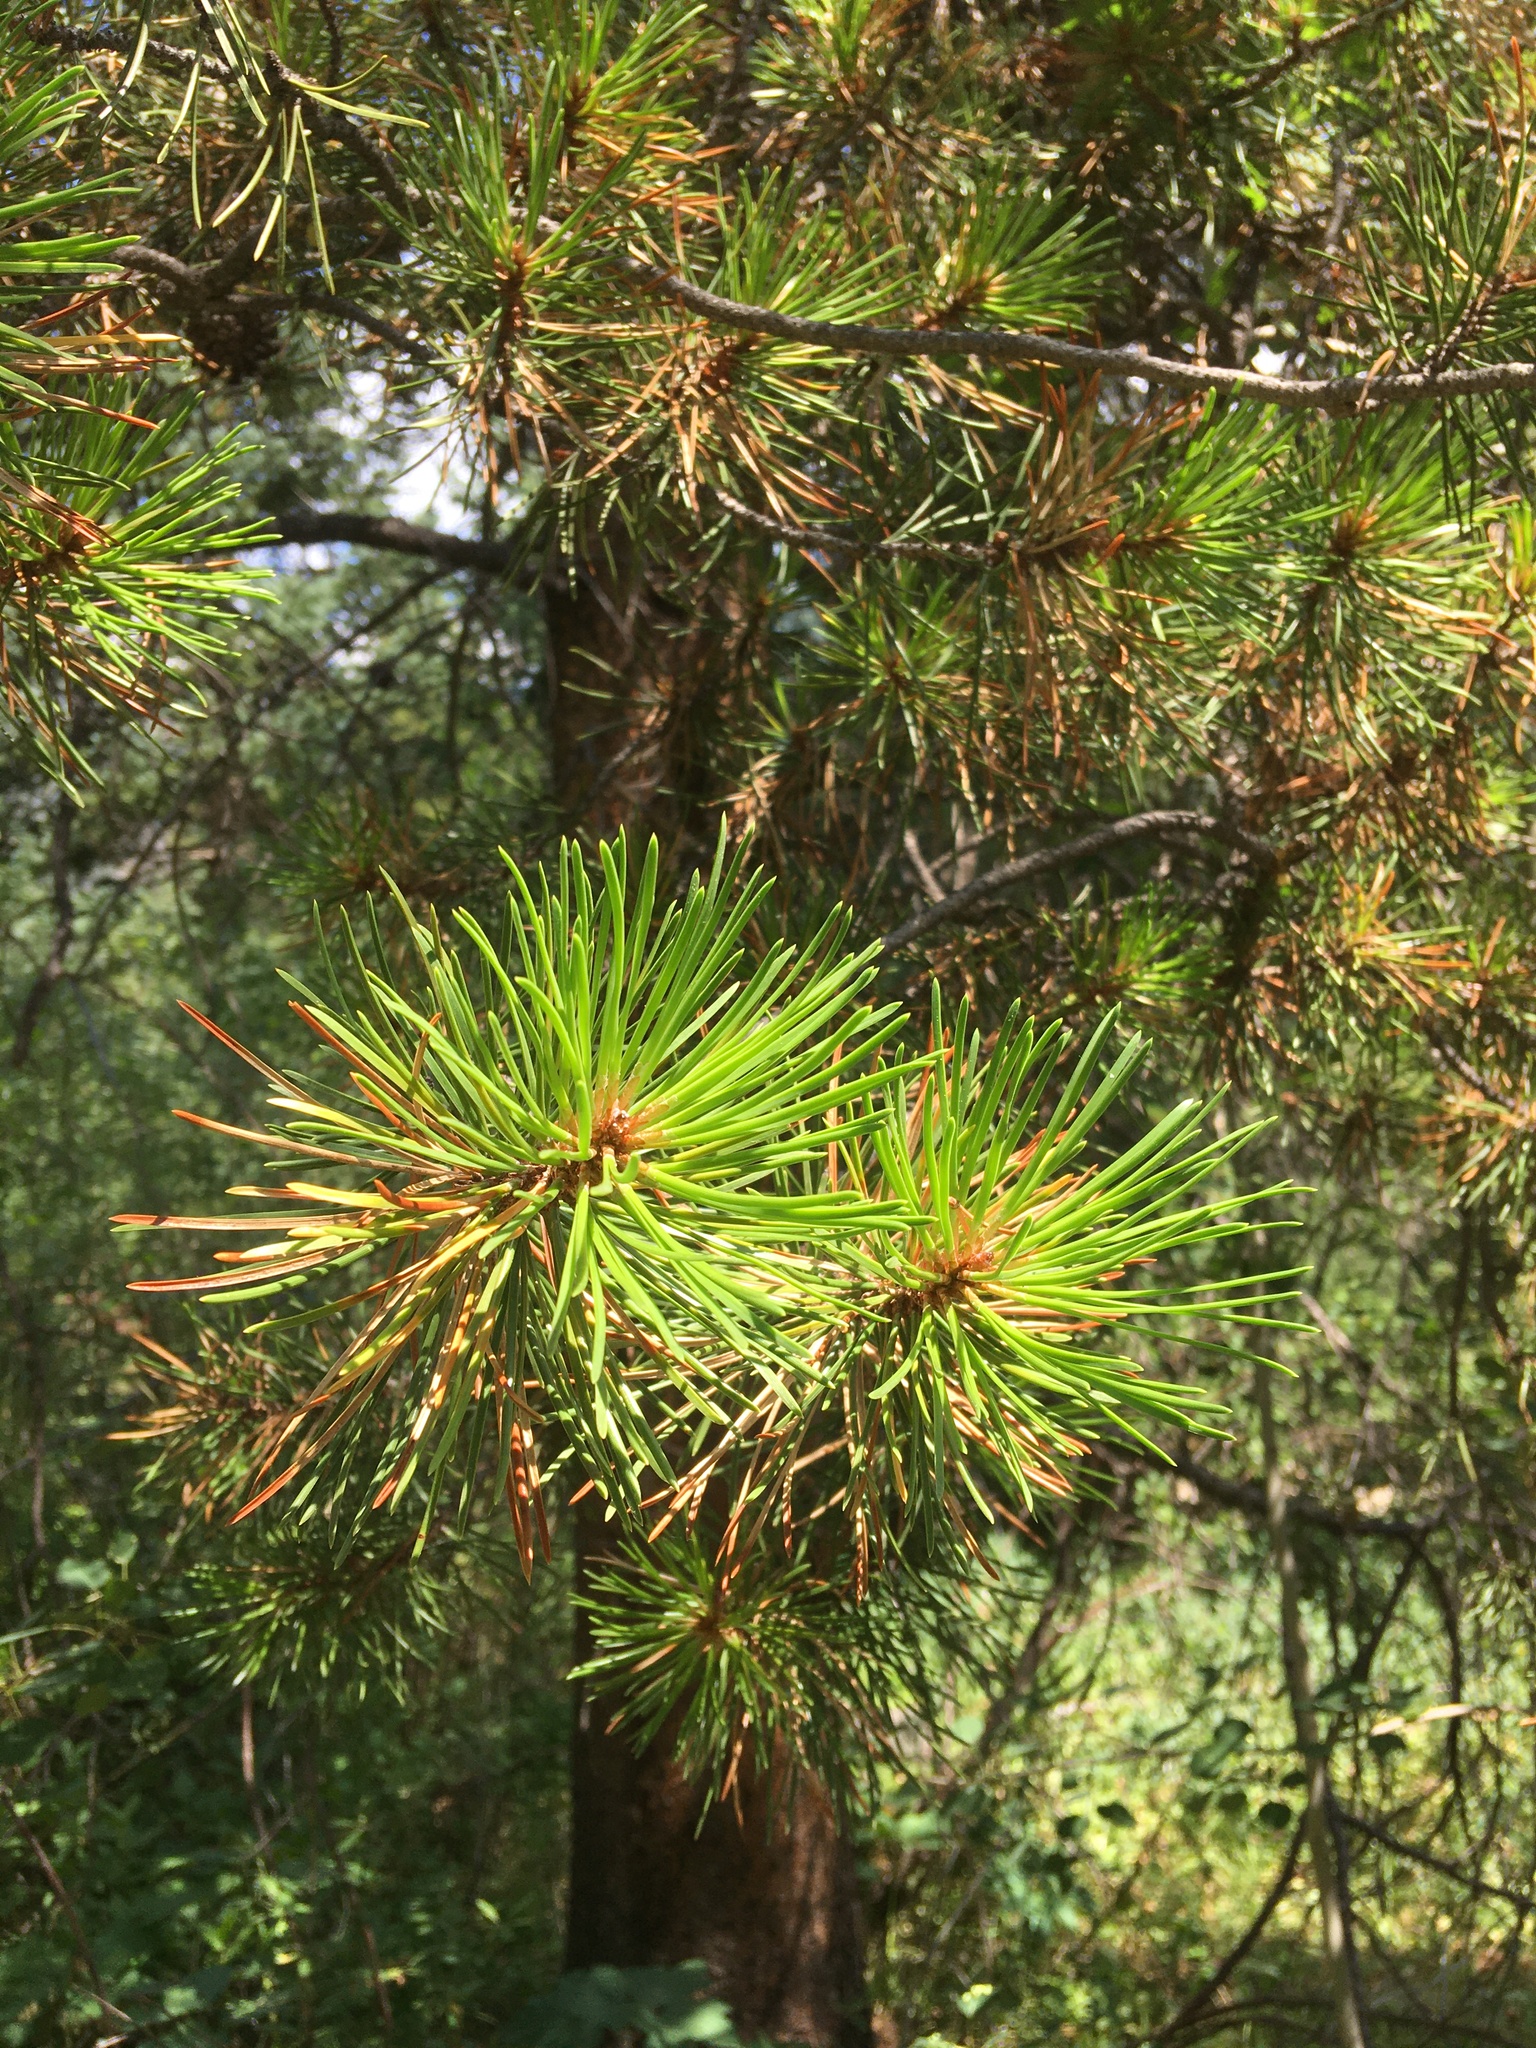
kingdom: Plantae
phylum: Tracheophyta
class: Pinopsida
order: Pinales
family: Pinaceae
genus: Pinus
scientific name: Pinus contorta
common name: Lodgepole pine
